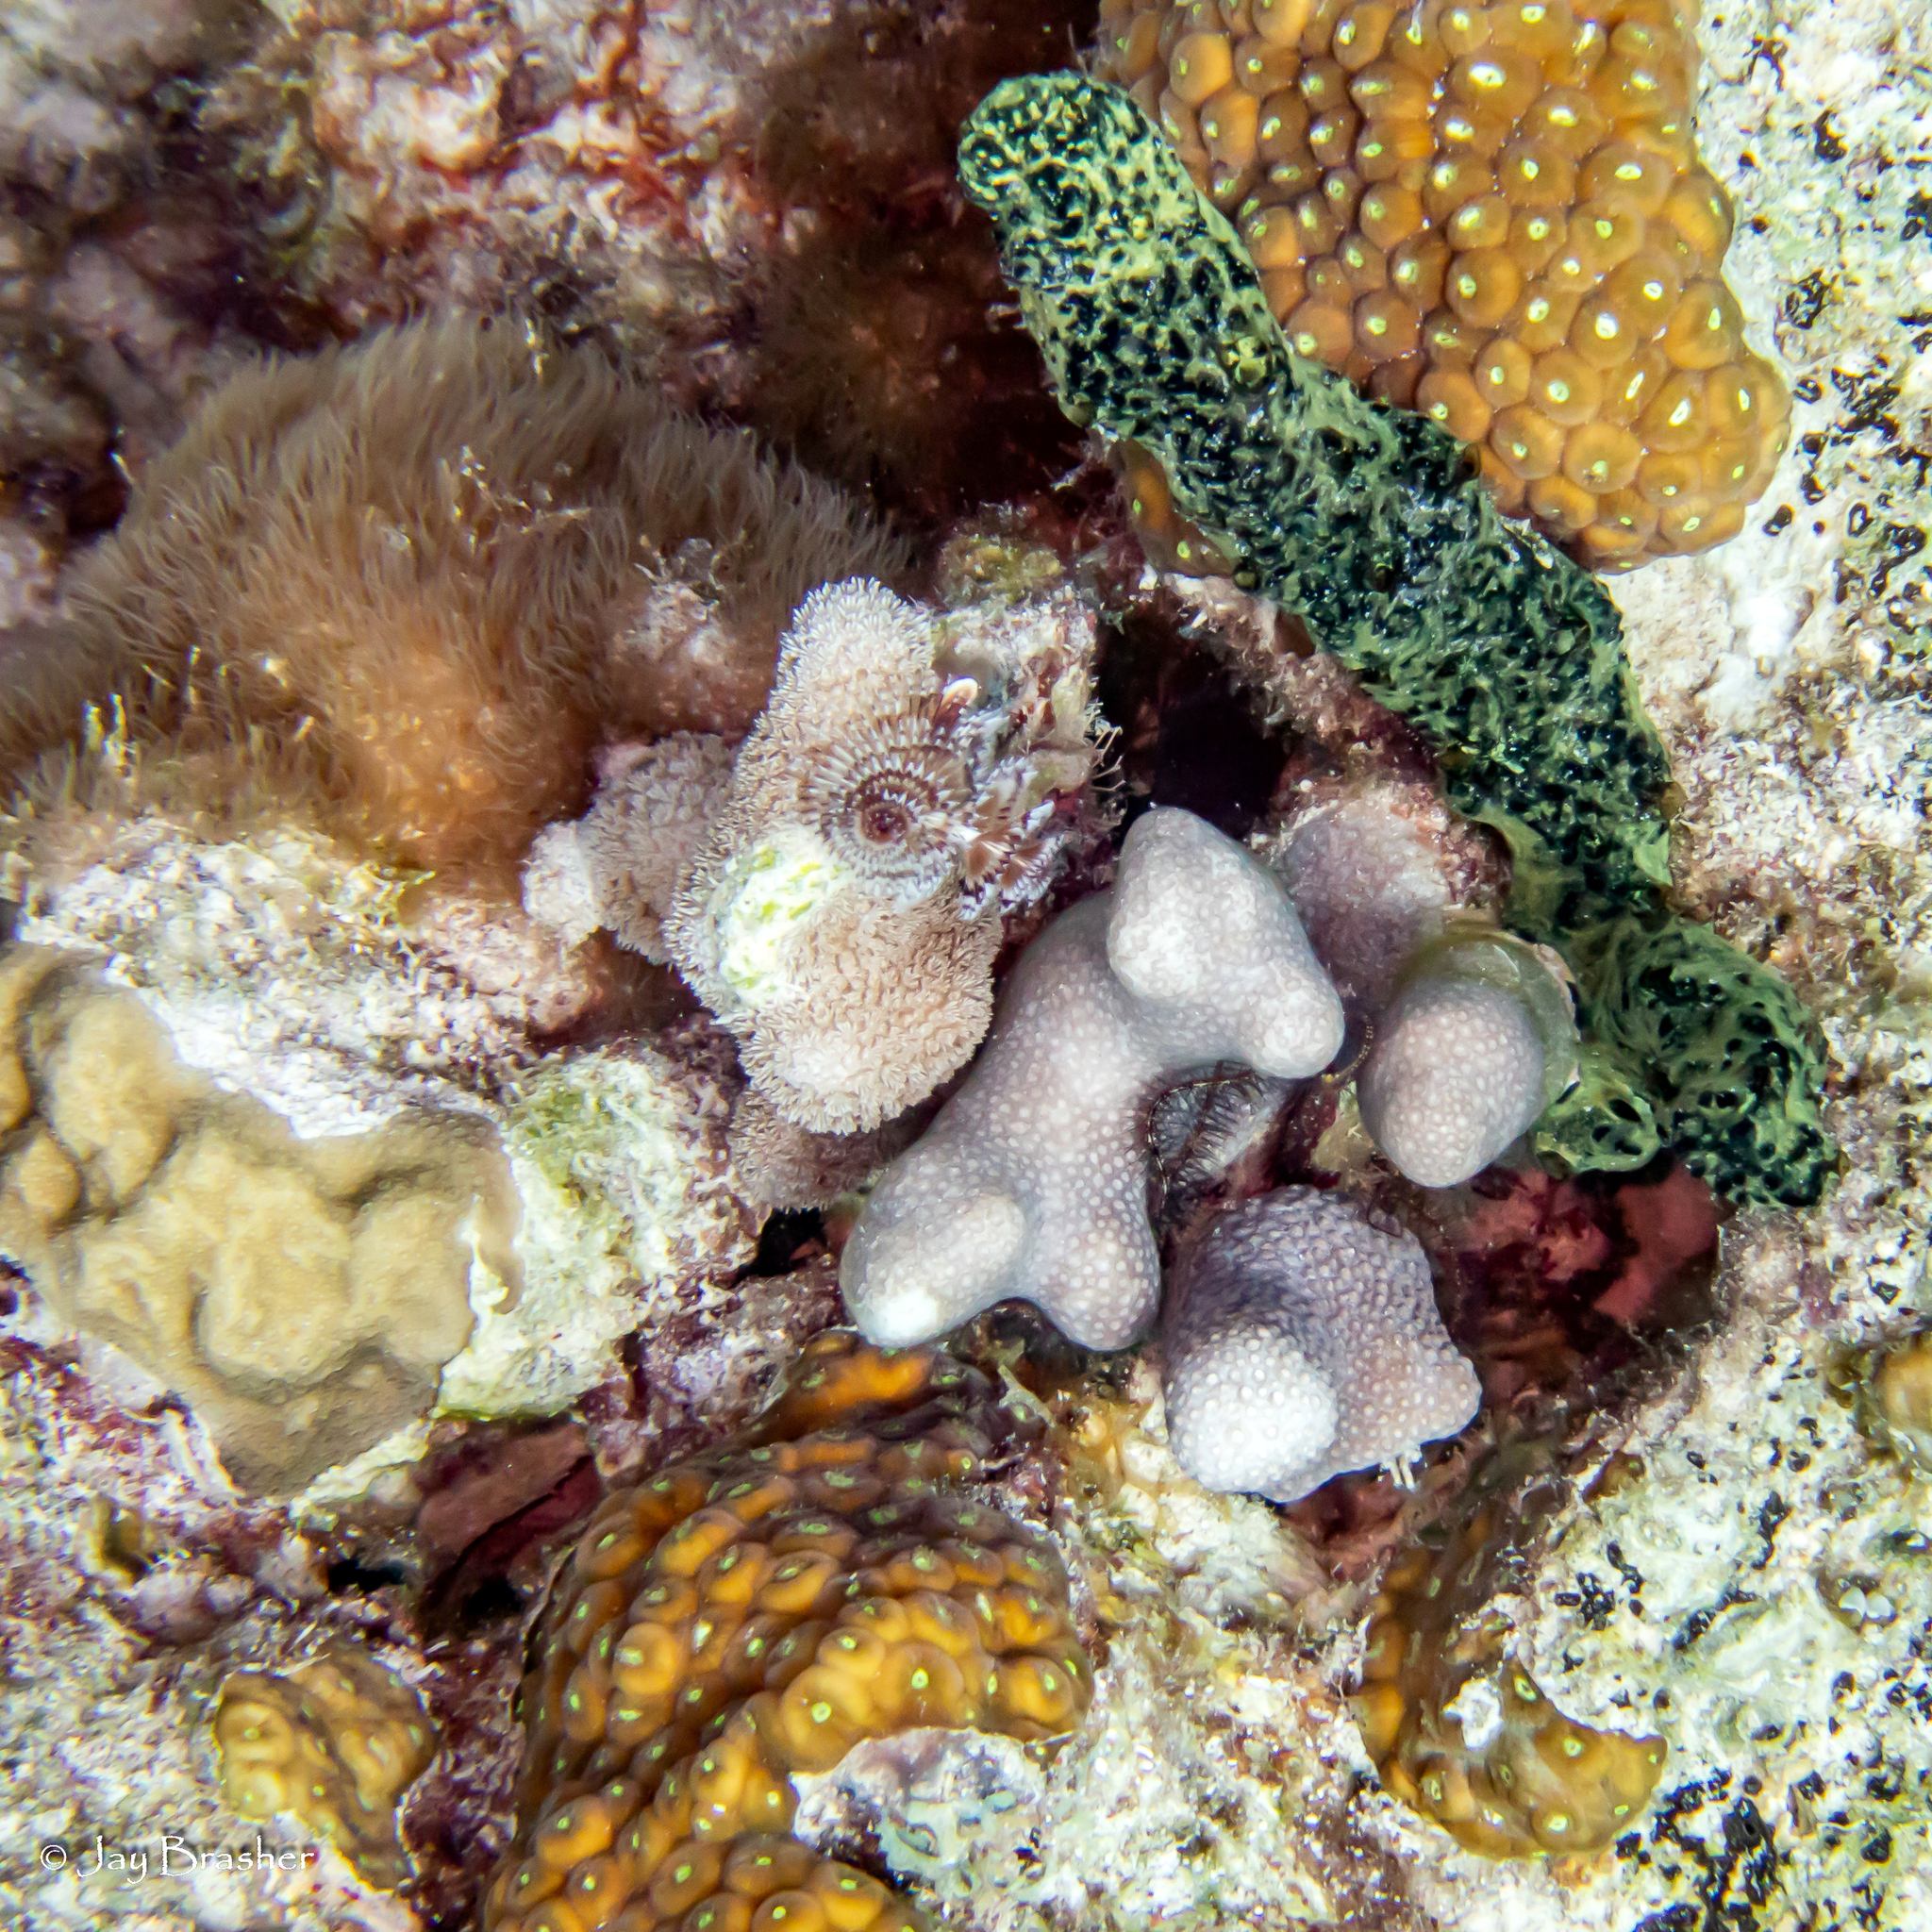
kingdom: Animalia
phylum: Cnidaria
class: Anthozoa
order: Scleractinia
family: Poritidae
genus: Porites
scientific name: Porites porites
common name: Finger coral
